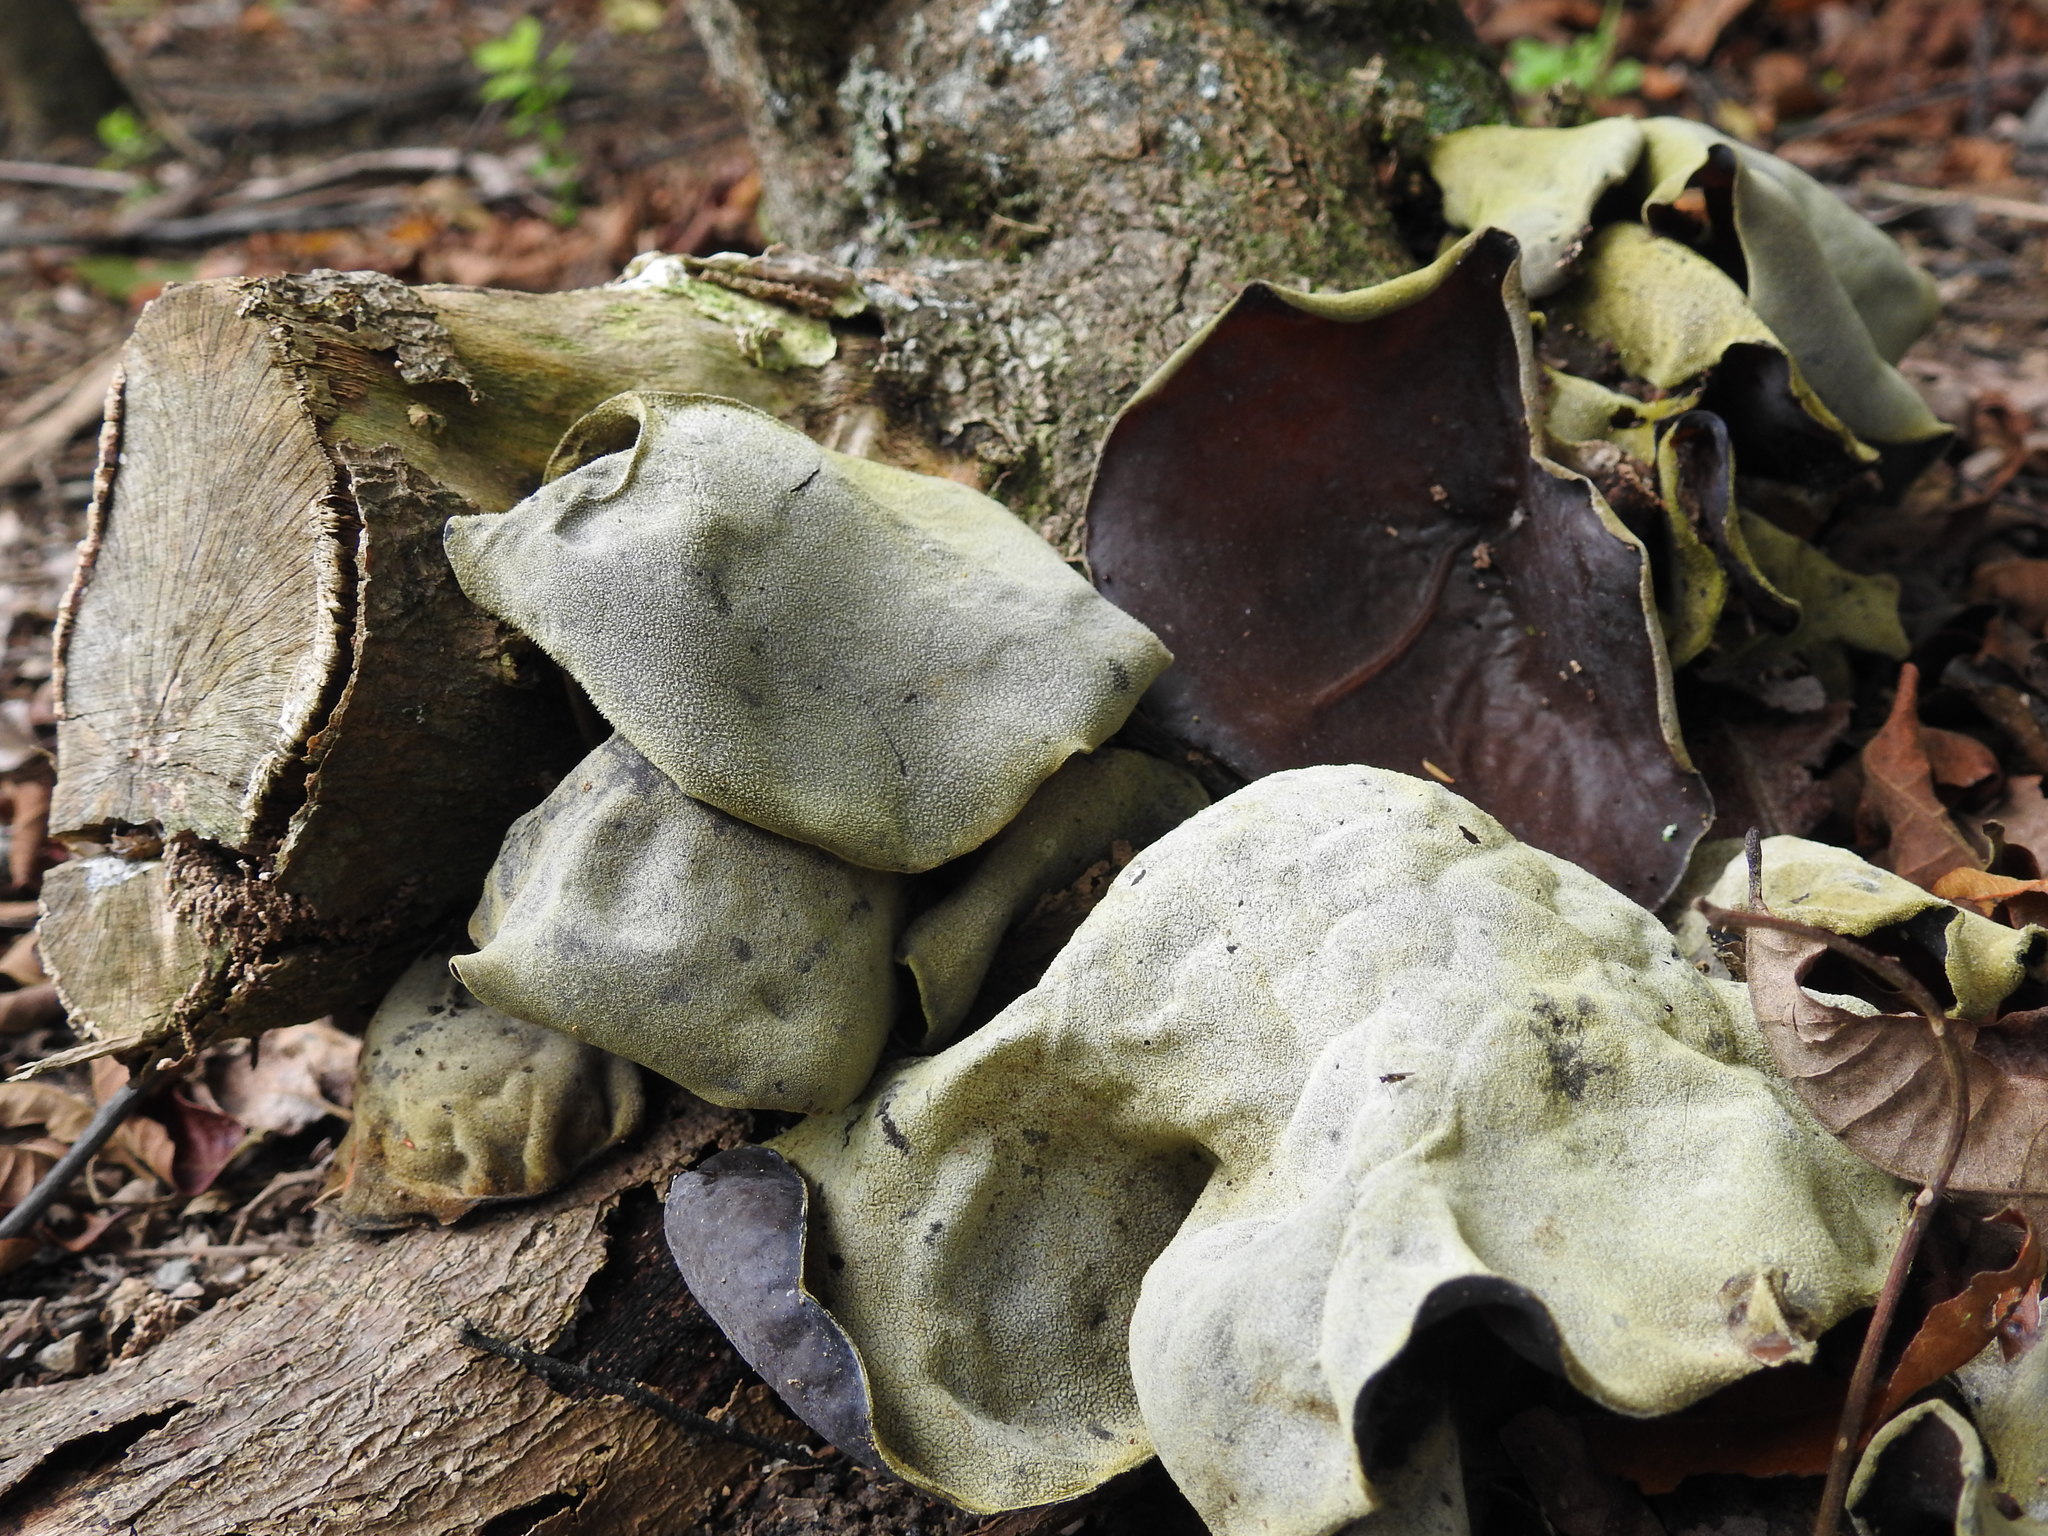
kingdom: Fungi
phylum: Basidiomycota
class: Agaricomycetes
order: Auriculariales
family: Auriculariaceae
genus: Auricularia
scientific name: Auricularia cornea
